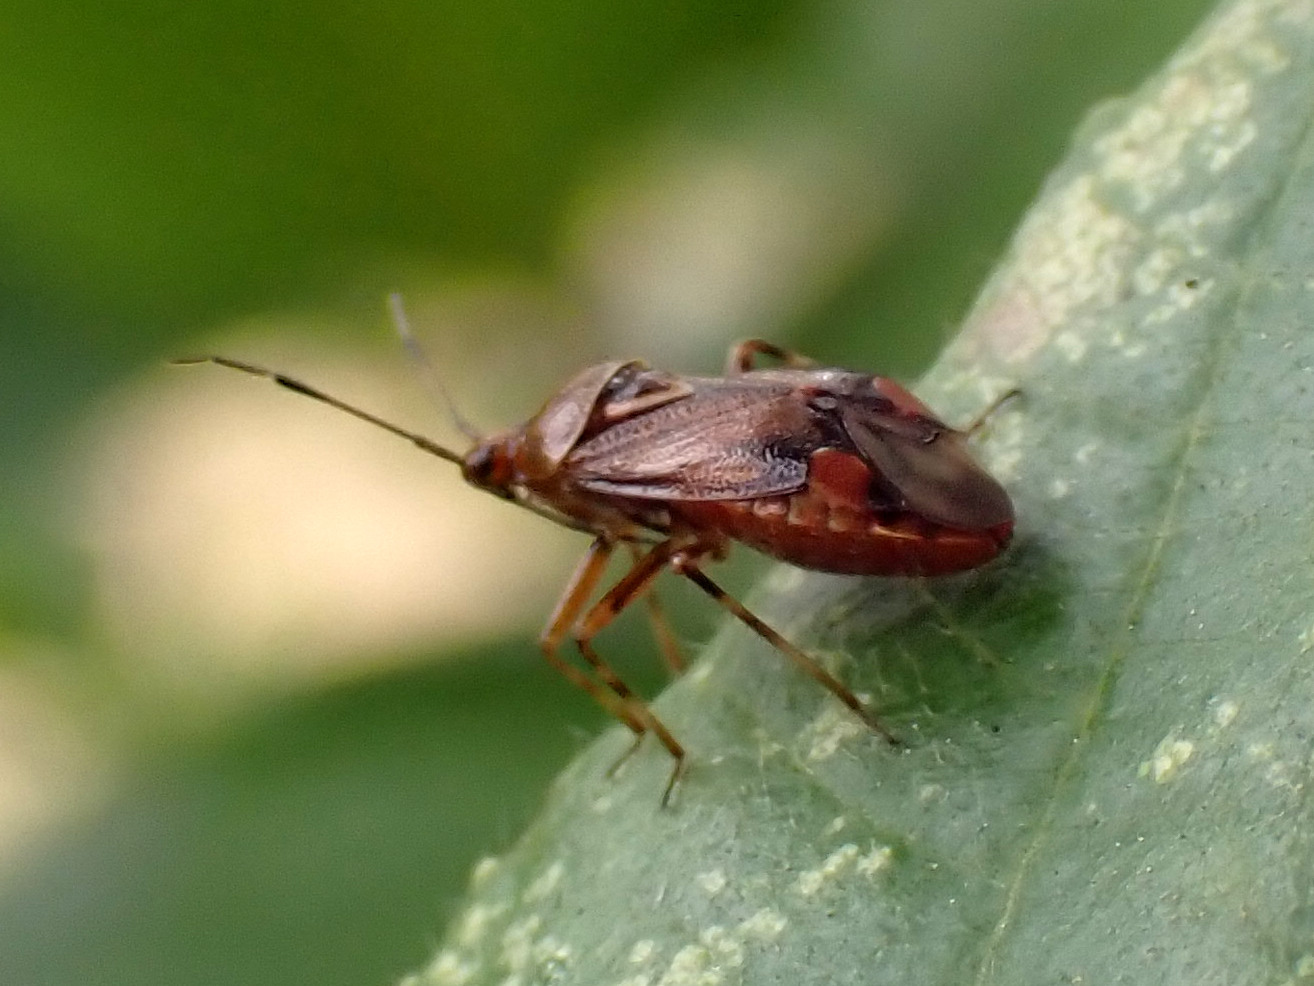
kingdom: Animalia
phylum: Arthropoda
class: Insecta
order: Hemiptera
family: Miridae
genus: Deraeocoris
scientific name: Deraeocoris flavilinea
